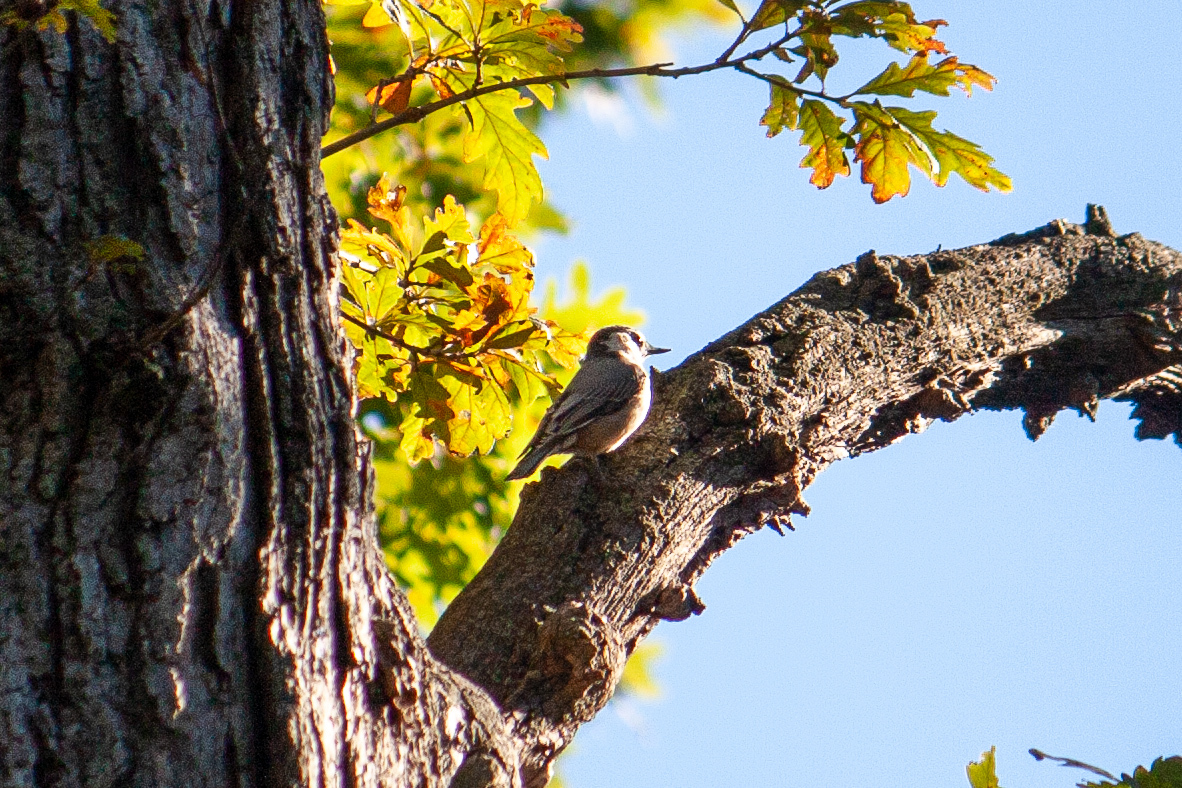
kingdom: Animalia
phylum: Chordata
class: Aves
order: Passeriformes
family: Sittidae
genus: Sitta
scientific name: Sitta carolinensis
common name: White-breasted nuthatch
